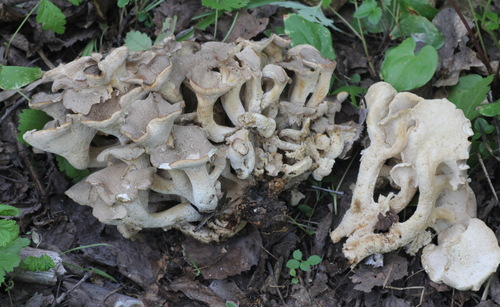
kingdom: Fungi
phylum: Basidiomycota
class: Agaricomycetes
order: Polyporales
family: Polyporaceae
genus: Polyporus
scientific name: Polyporus umbellatus
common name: Umbrella polypore
